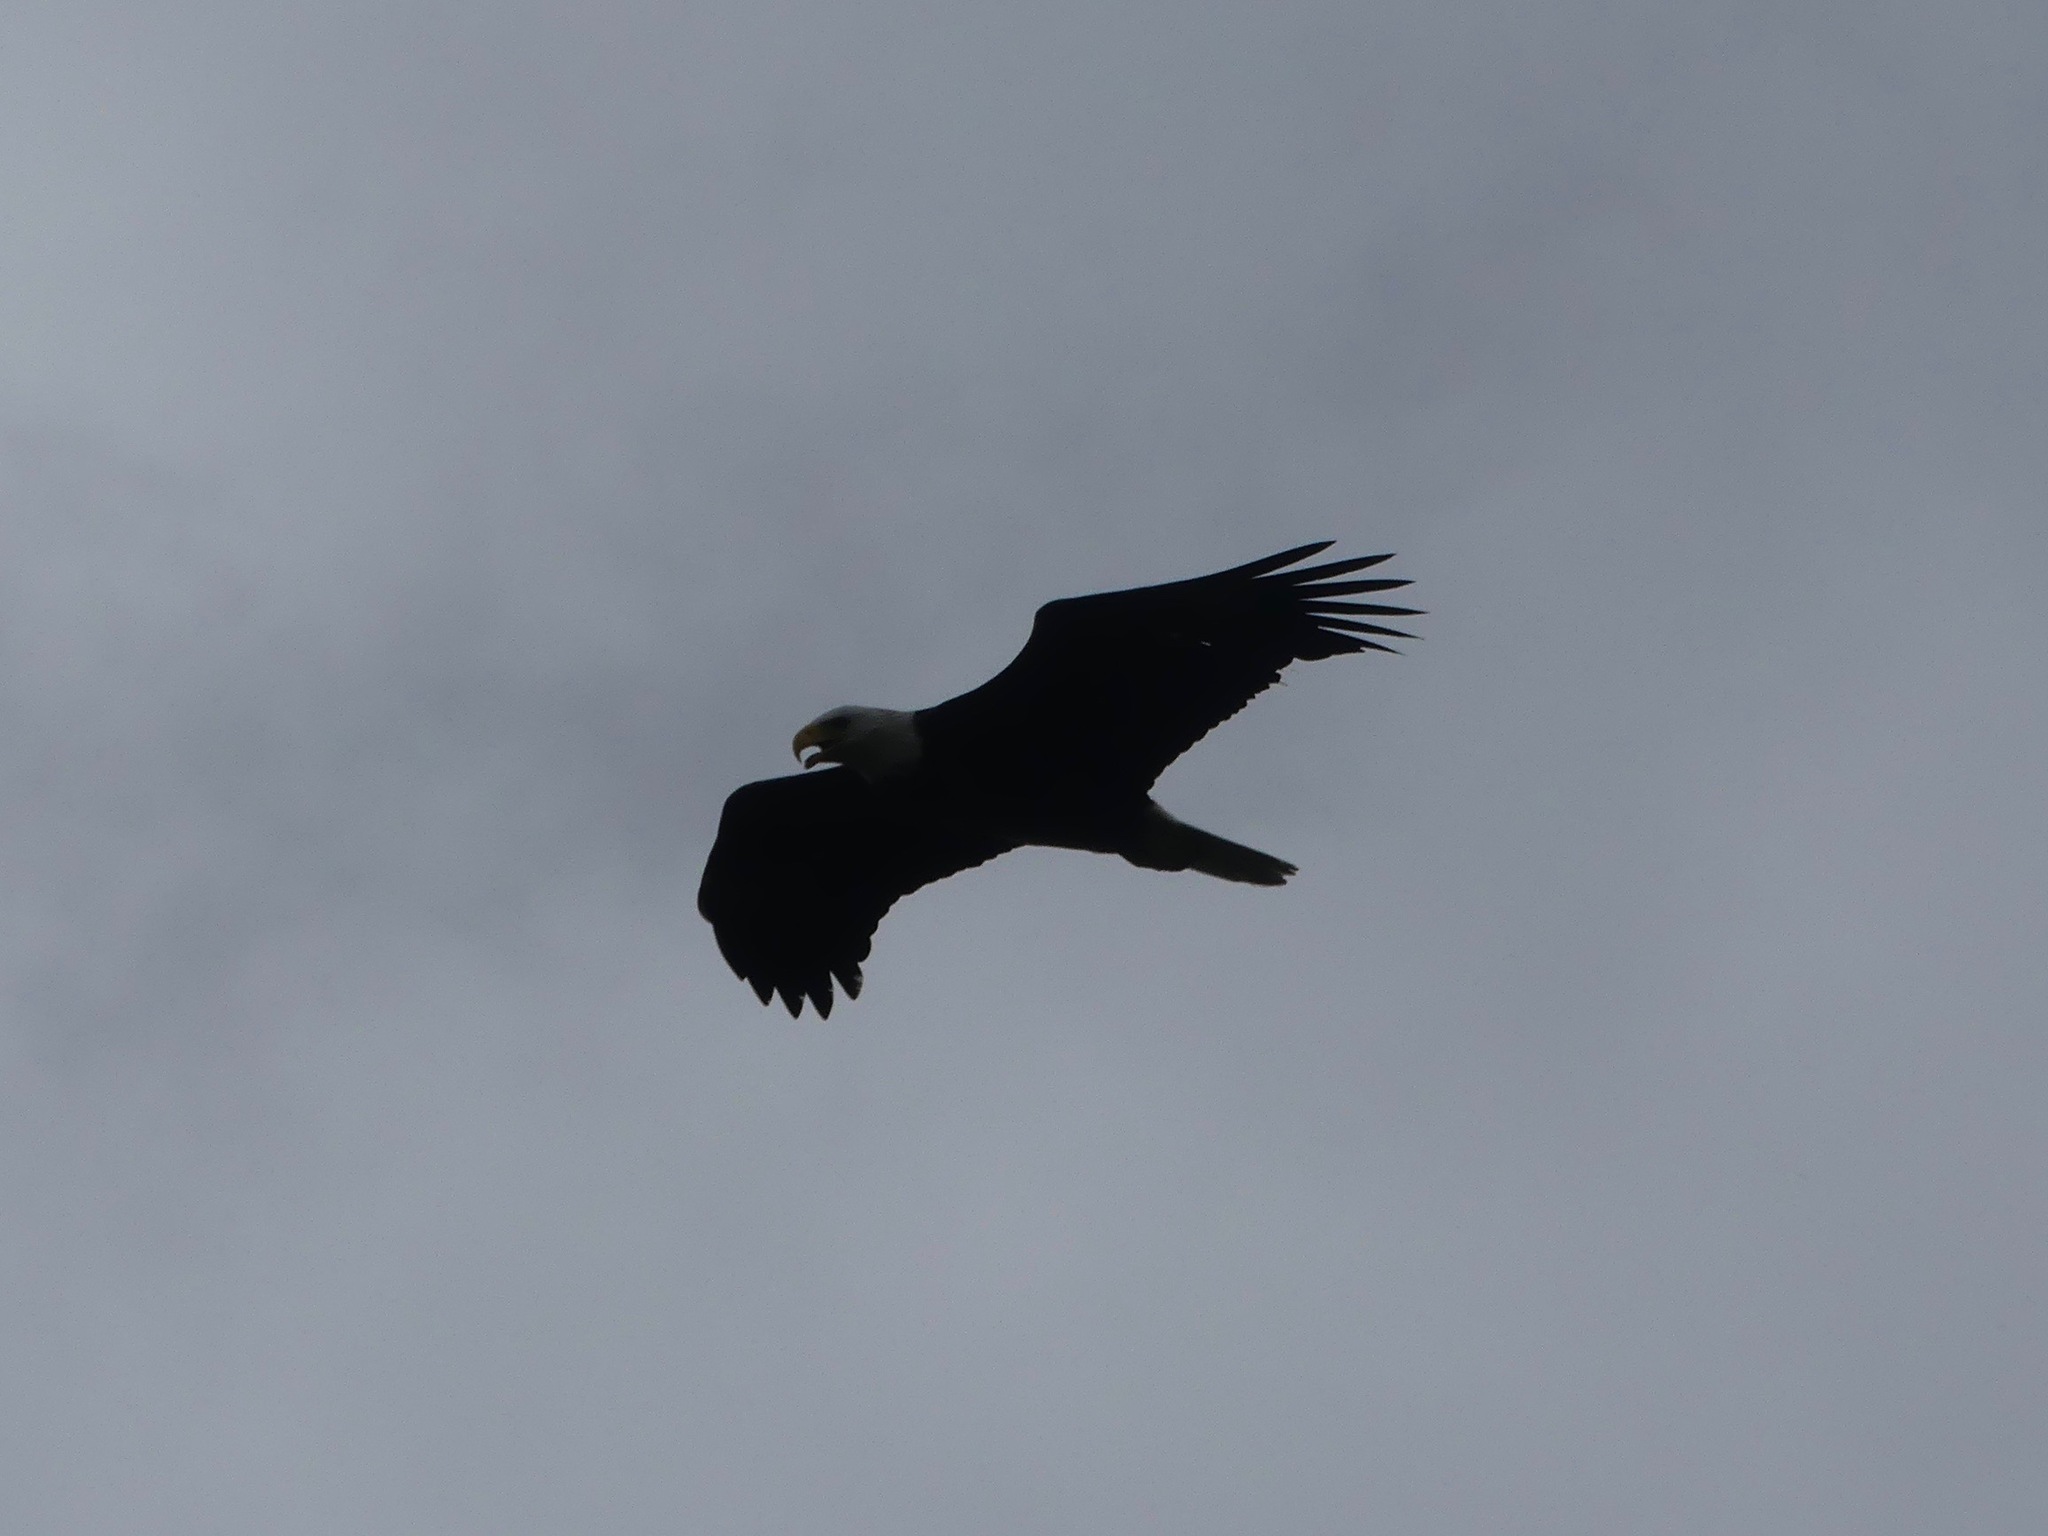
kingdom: Animalia
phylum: Chordata
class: Aves
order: Accipitriformes
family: Accipitridae
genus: Haliaeetus
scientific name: Haliaeetus leucocephalus
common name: Bald eagle
